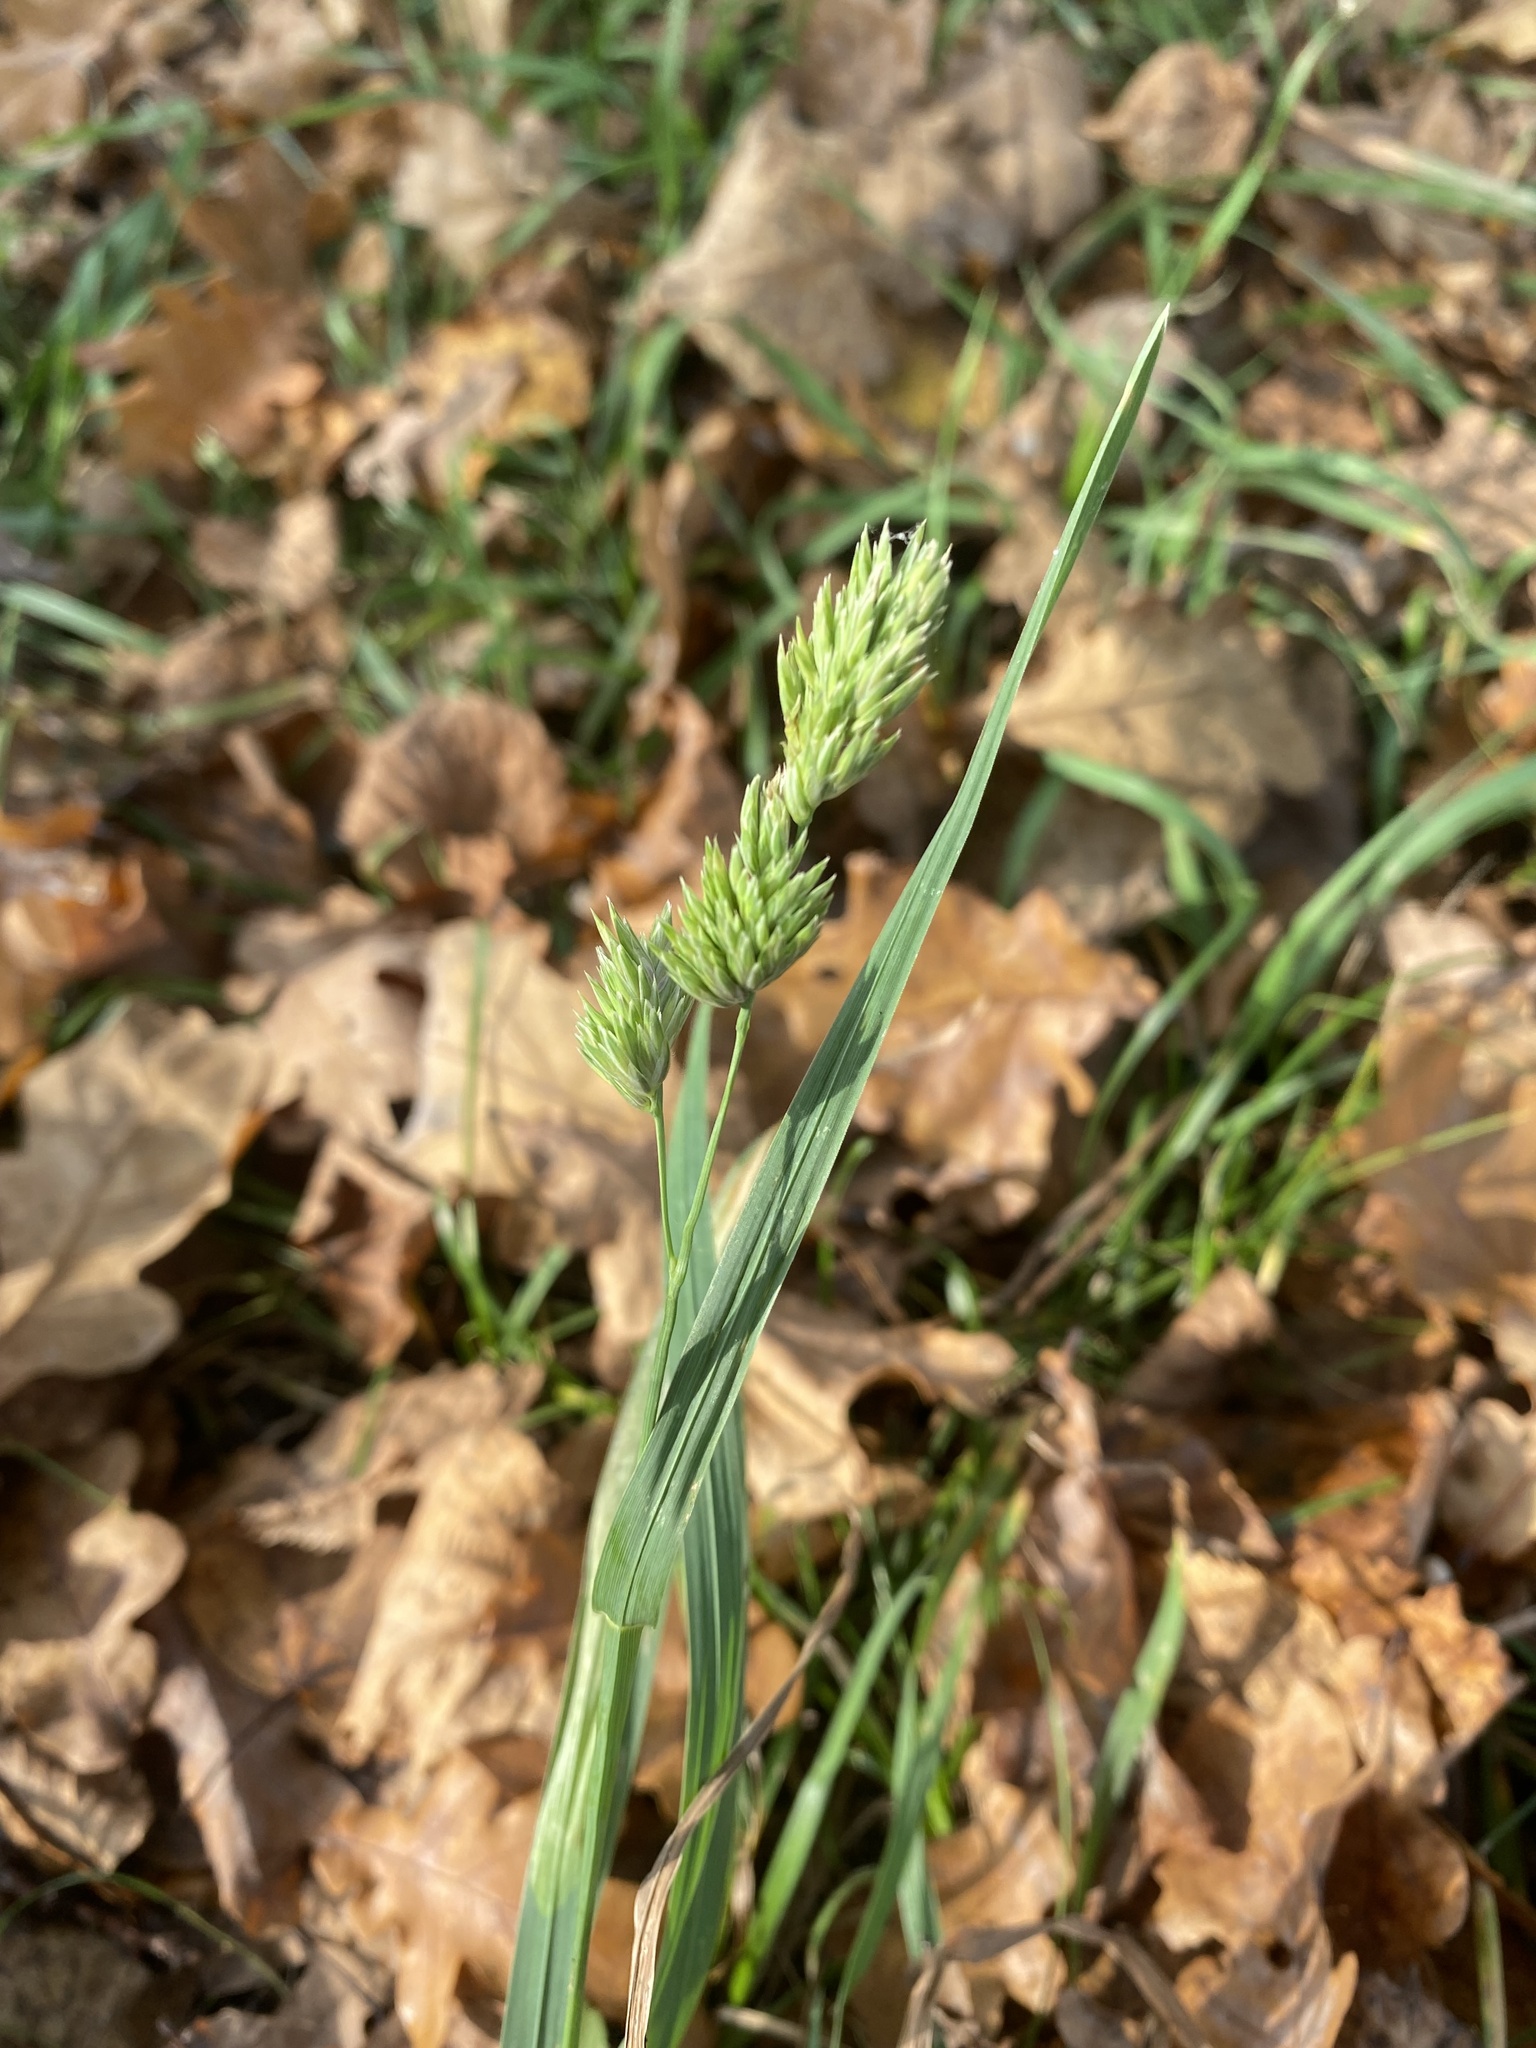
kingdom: Plantae
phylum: Tracheophyta
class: Liliopsida
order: Poales
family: Poaceae
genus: Dactylis
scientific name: Dactylis glomerata
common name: Orchardgrass
